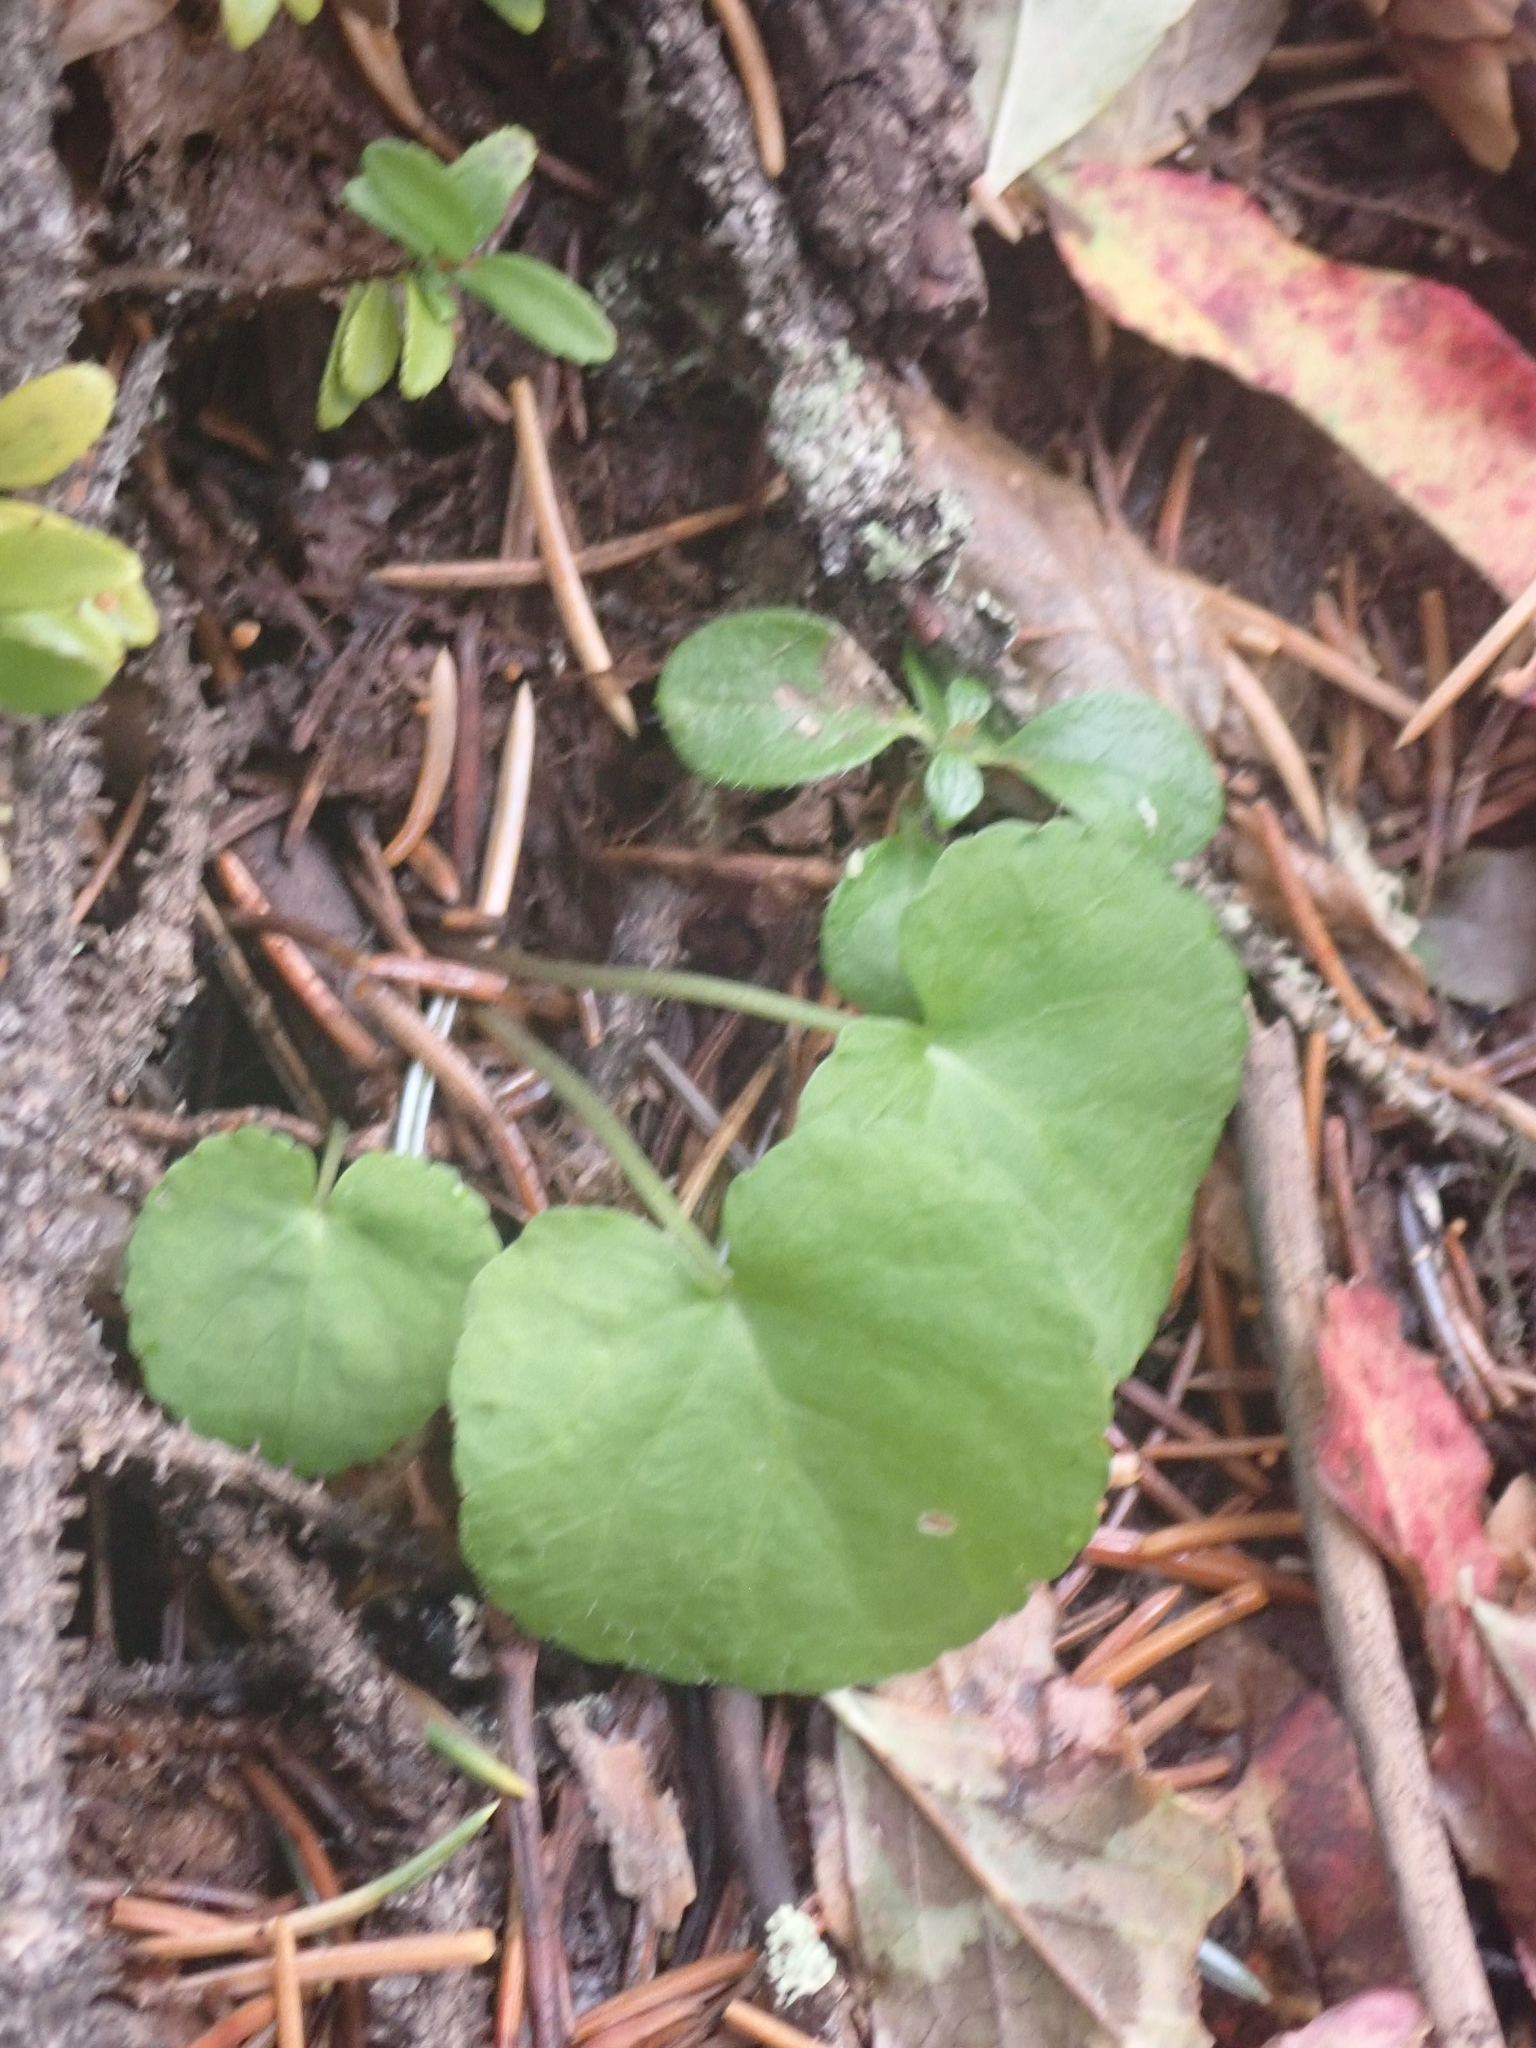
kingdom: Plantae
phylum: Tracheophyta
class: Magnoliopsida
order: Malpighiales
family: Violaceae
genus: Viola
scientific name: Viola orbiculata
